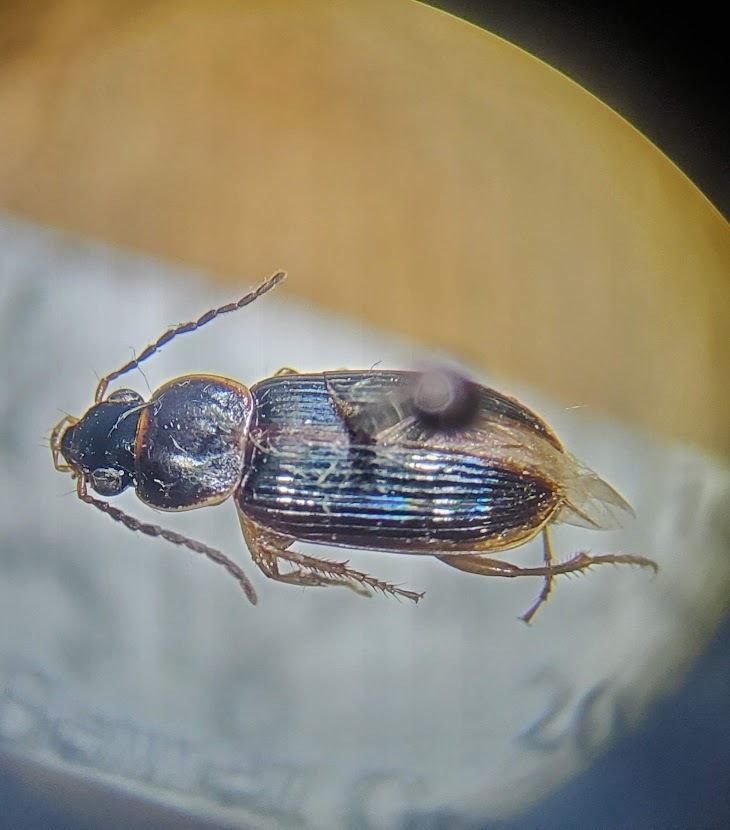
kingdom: Animalia
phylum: Arthropoda
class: Insecta
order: Coleoptera
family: Carabidae
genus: Stenolophus
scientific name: Stenolophus ochropezus
